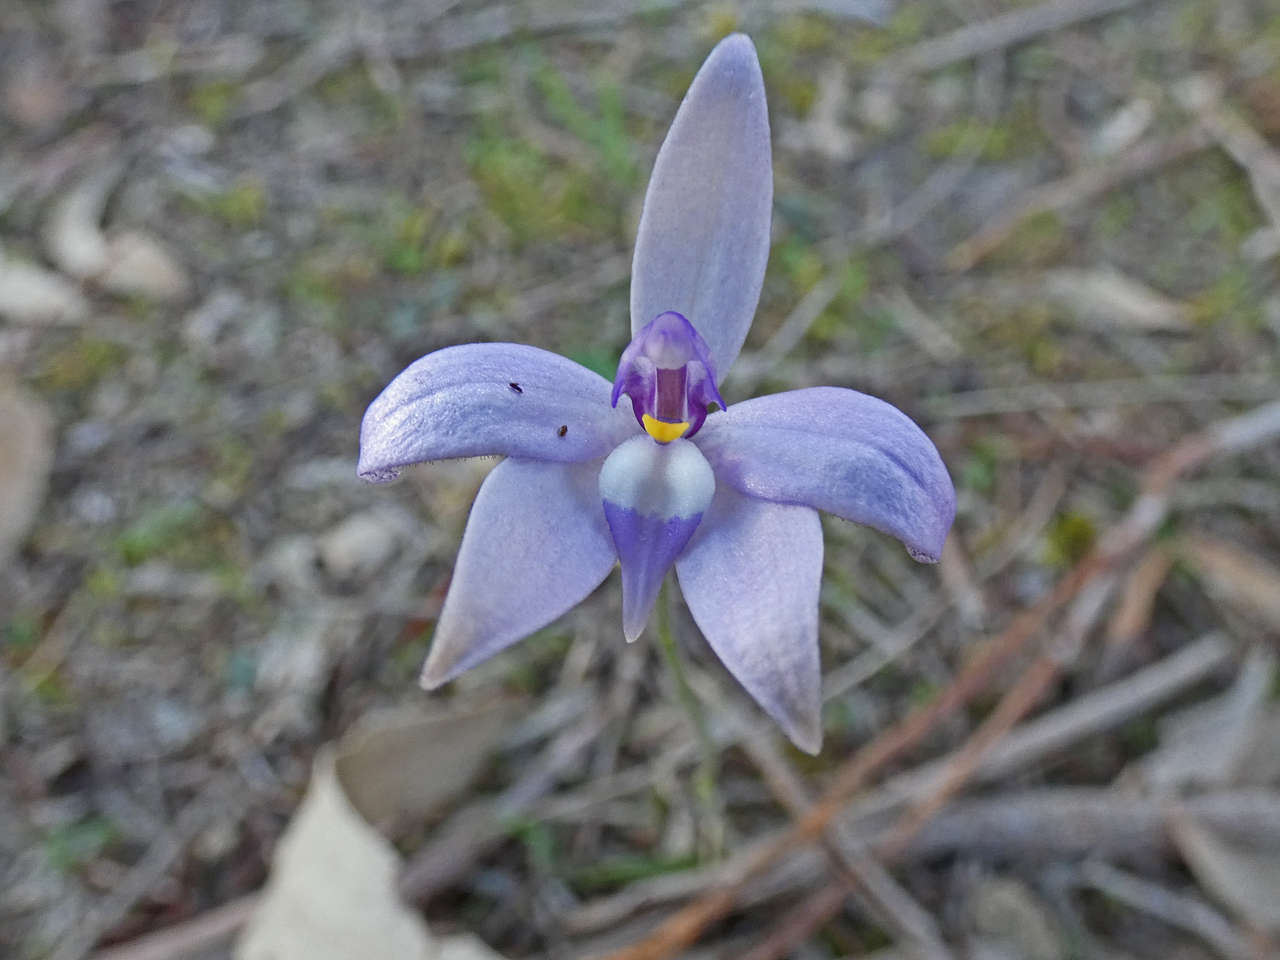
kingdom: Plantae
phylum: Tracheophyta
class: Liliopsida
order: Asparagales
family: Orchidaceae
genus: Caladenia
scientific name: Caladenia major
